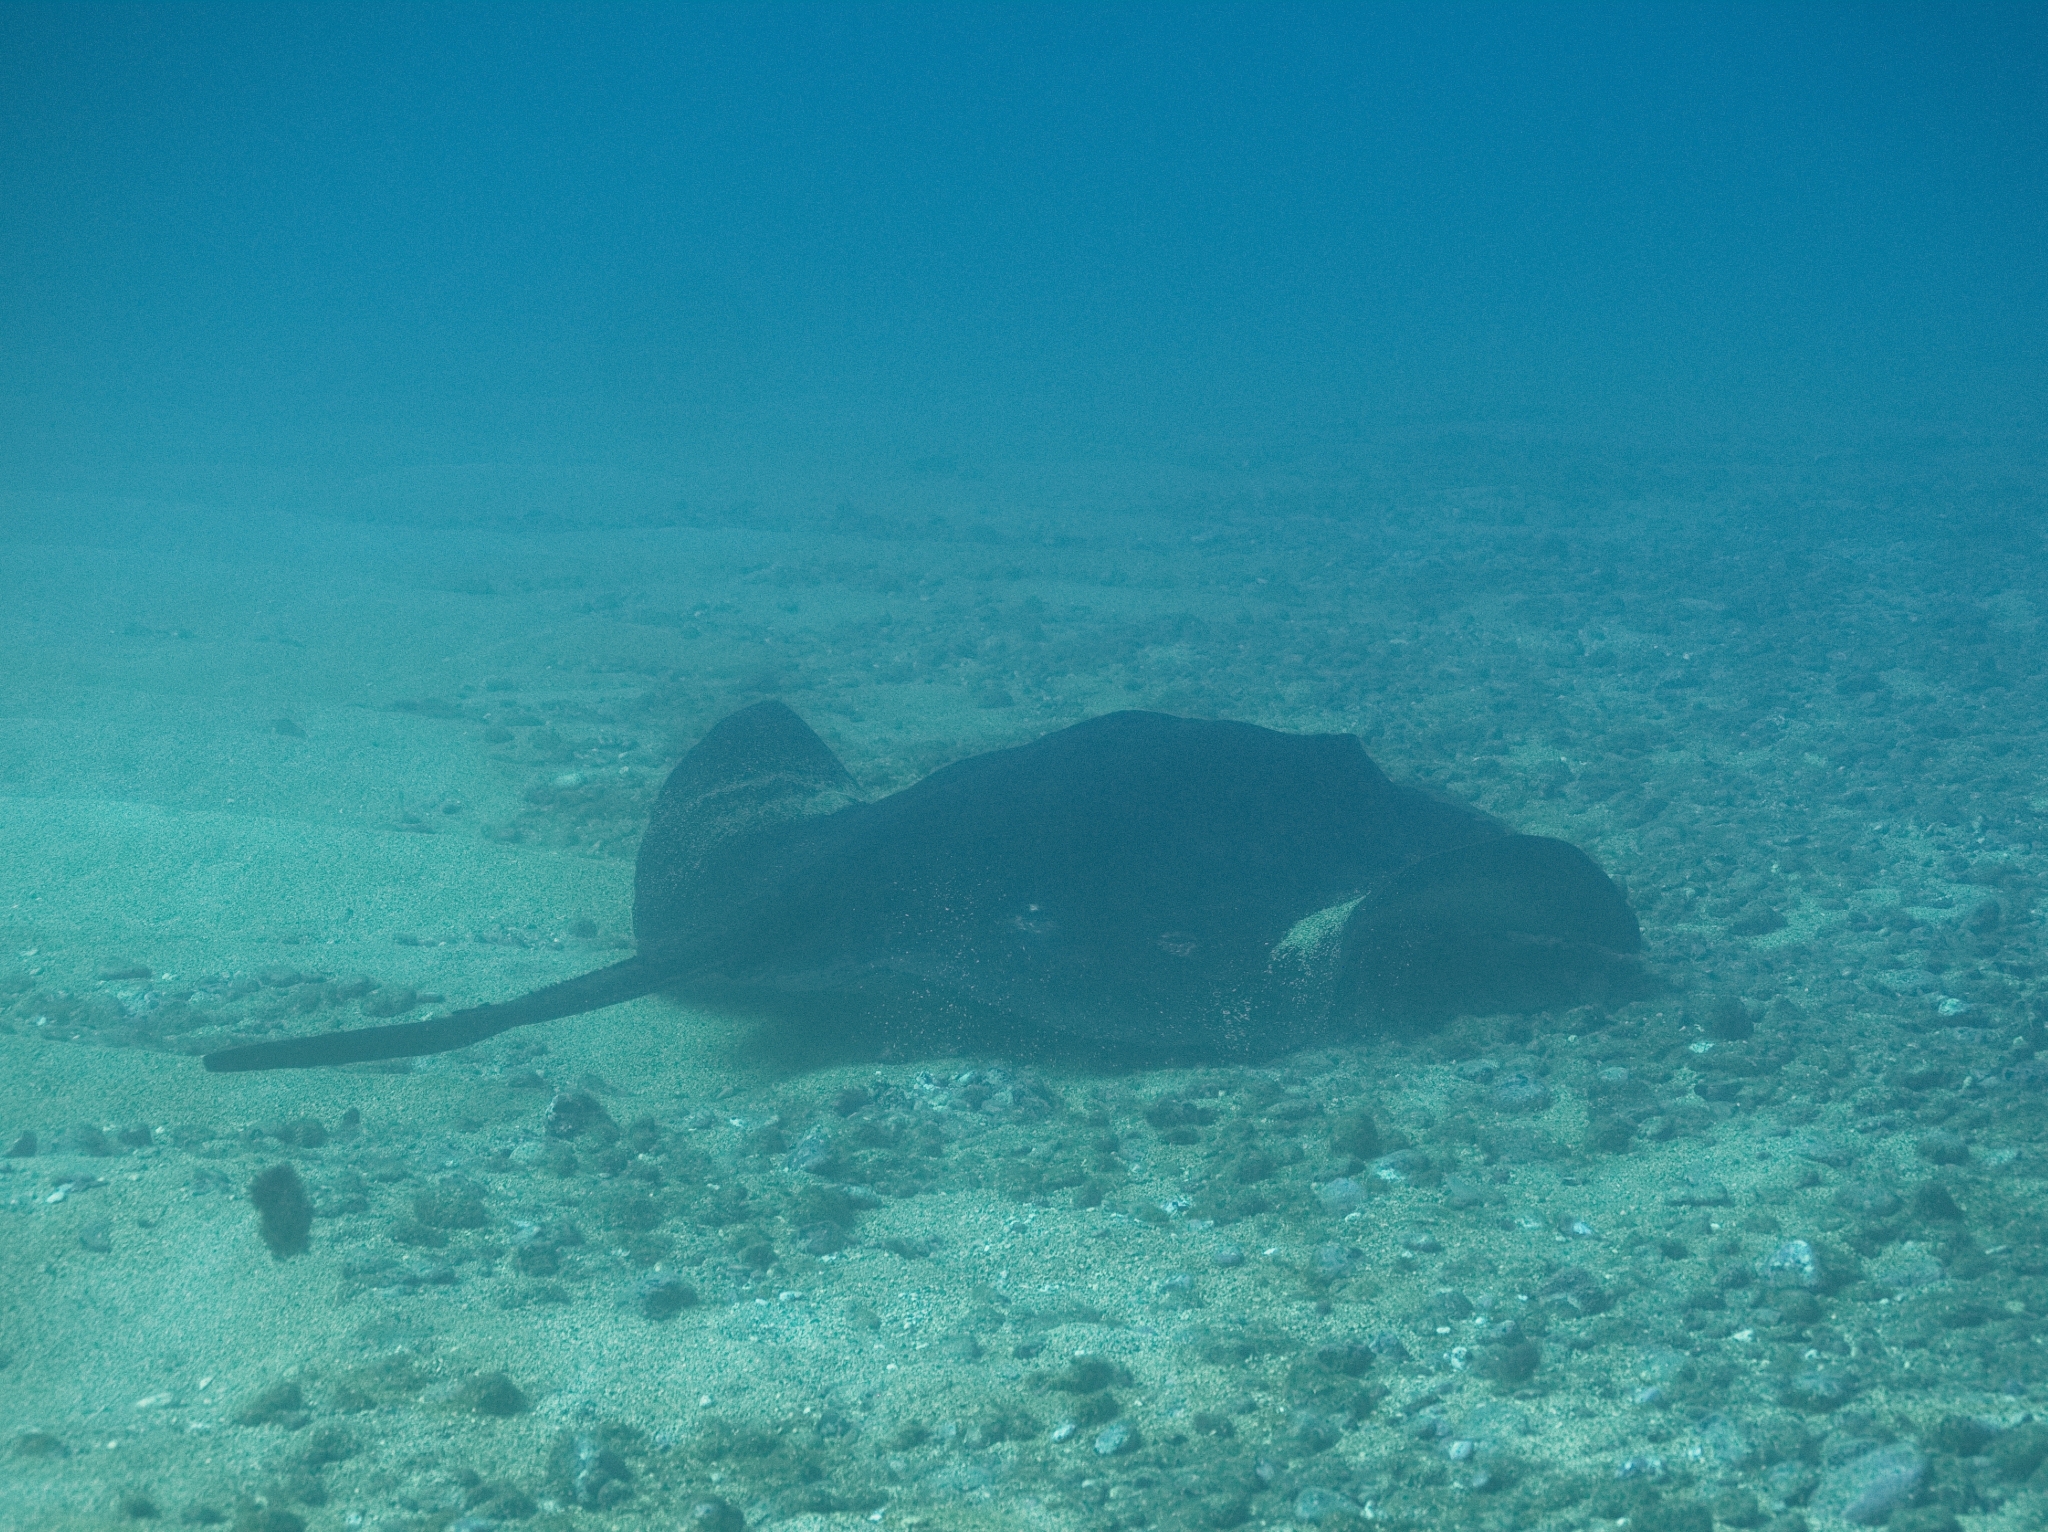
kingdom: Animalia
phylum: Chordata
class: Elasmobranchii
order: Myliobatiformes
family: Dasyatidae
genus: Taeniura
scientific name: Taeniura grabata
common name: Round stingray
